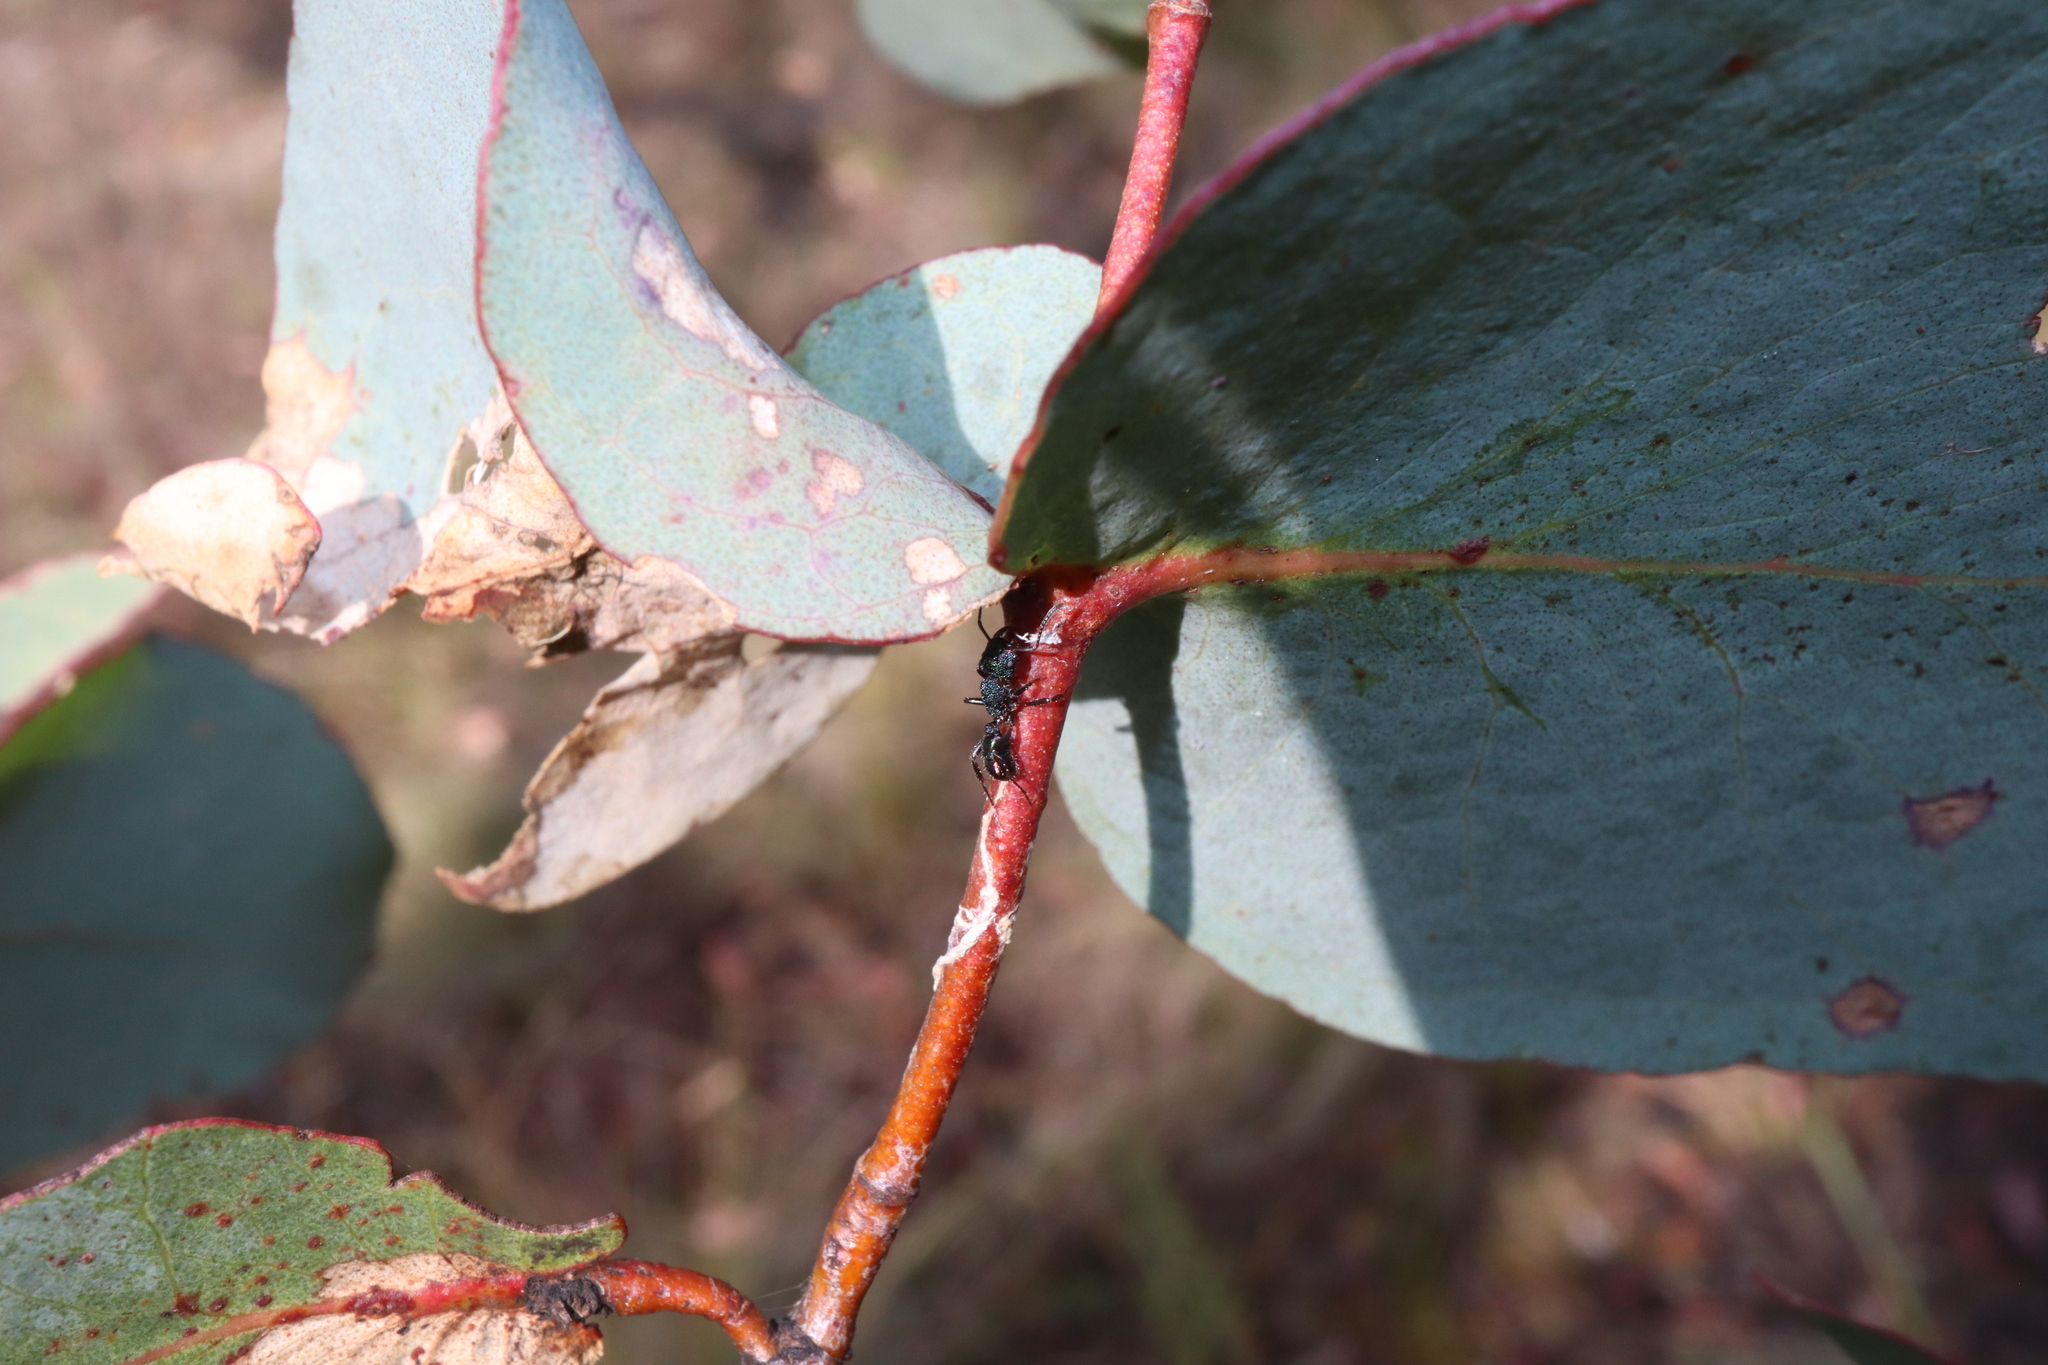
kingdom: Animalia
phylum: Arthropoda
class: Insecta
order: Hymenoptera
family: Formicidae
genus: Rhytidoponera
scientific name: Rhytidoponera metallica
